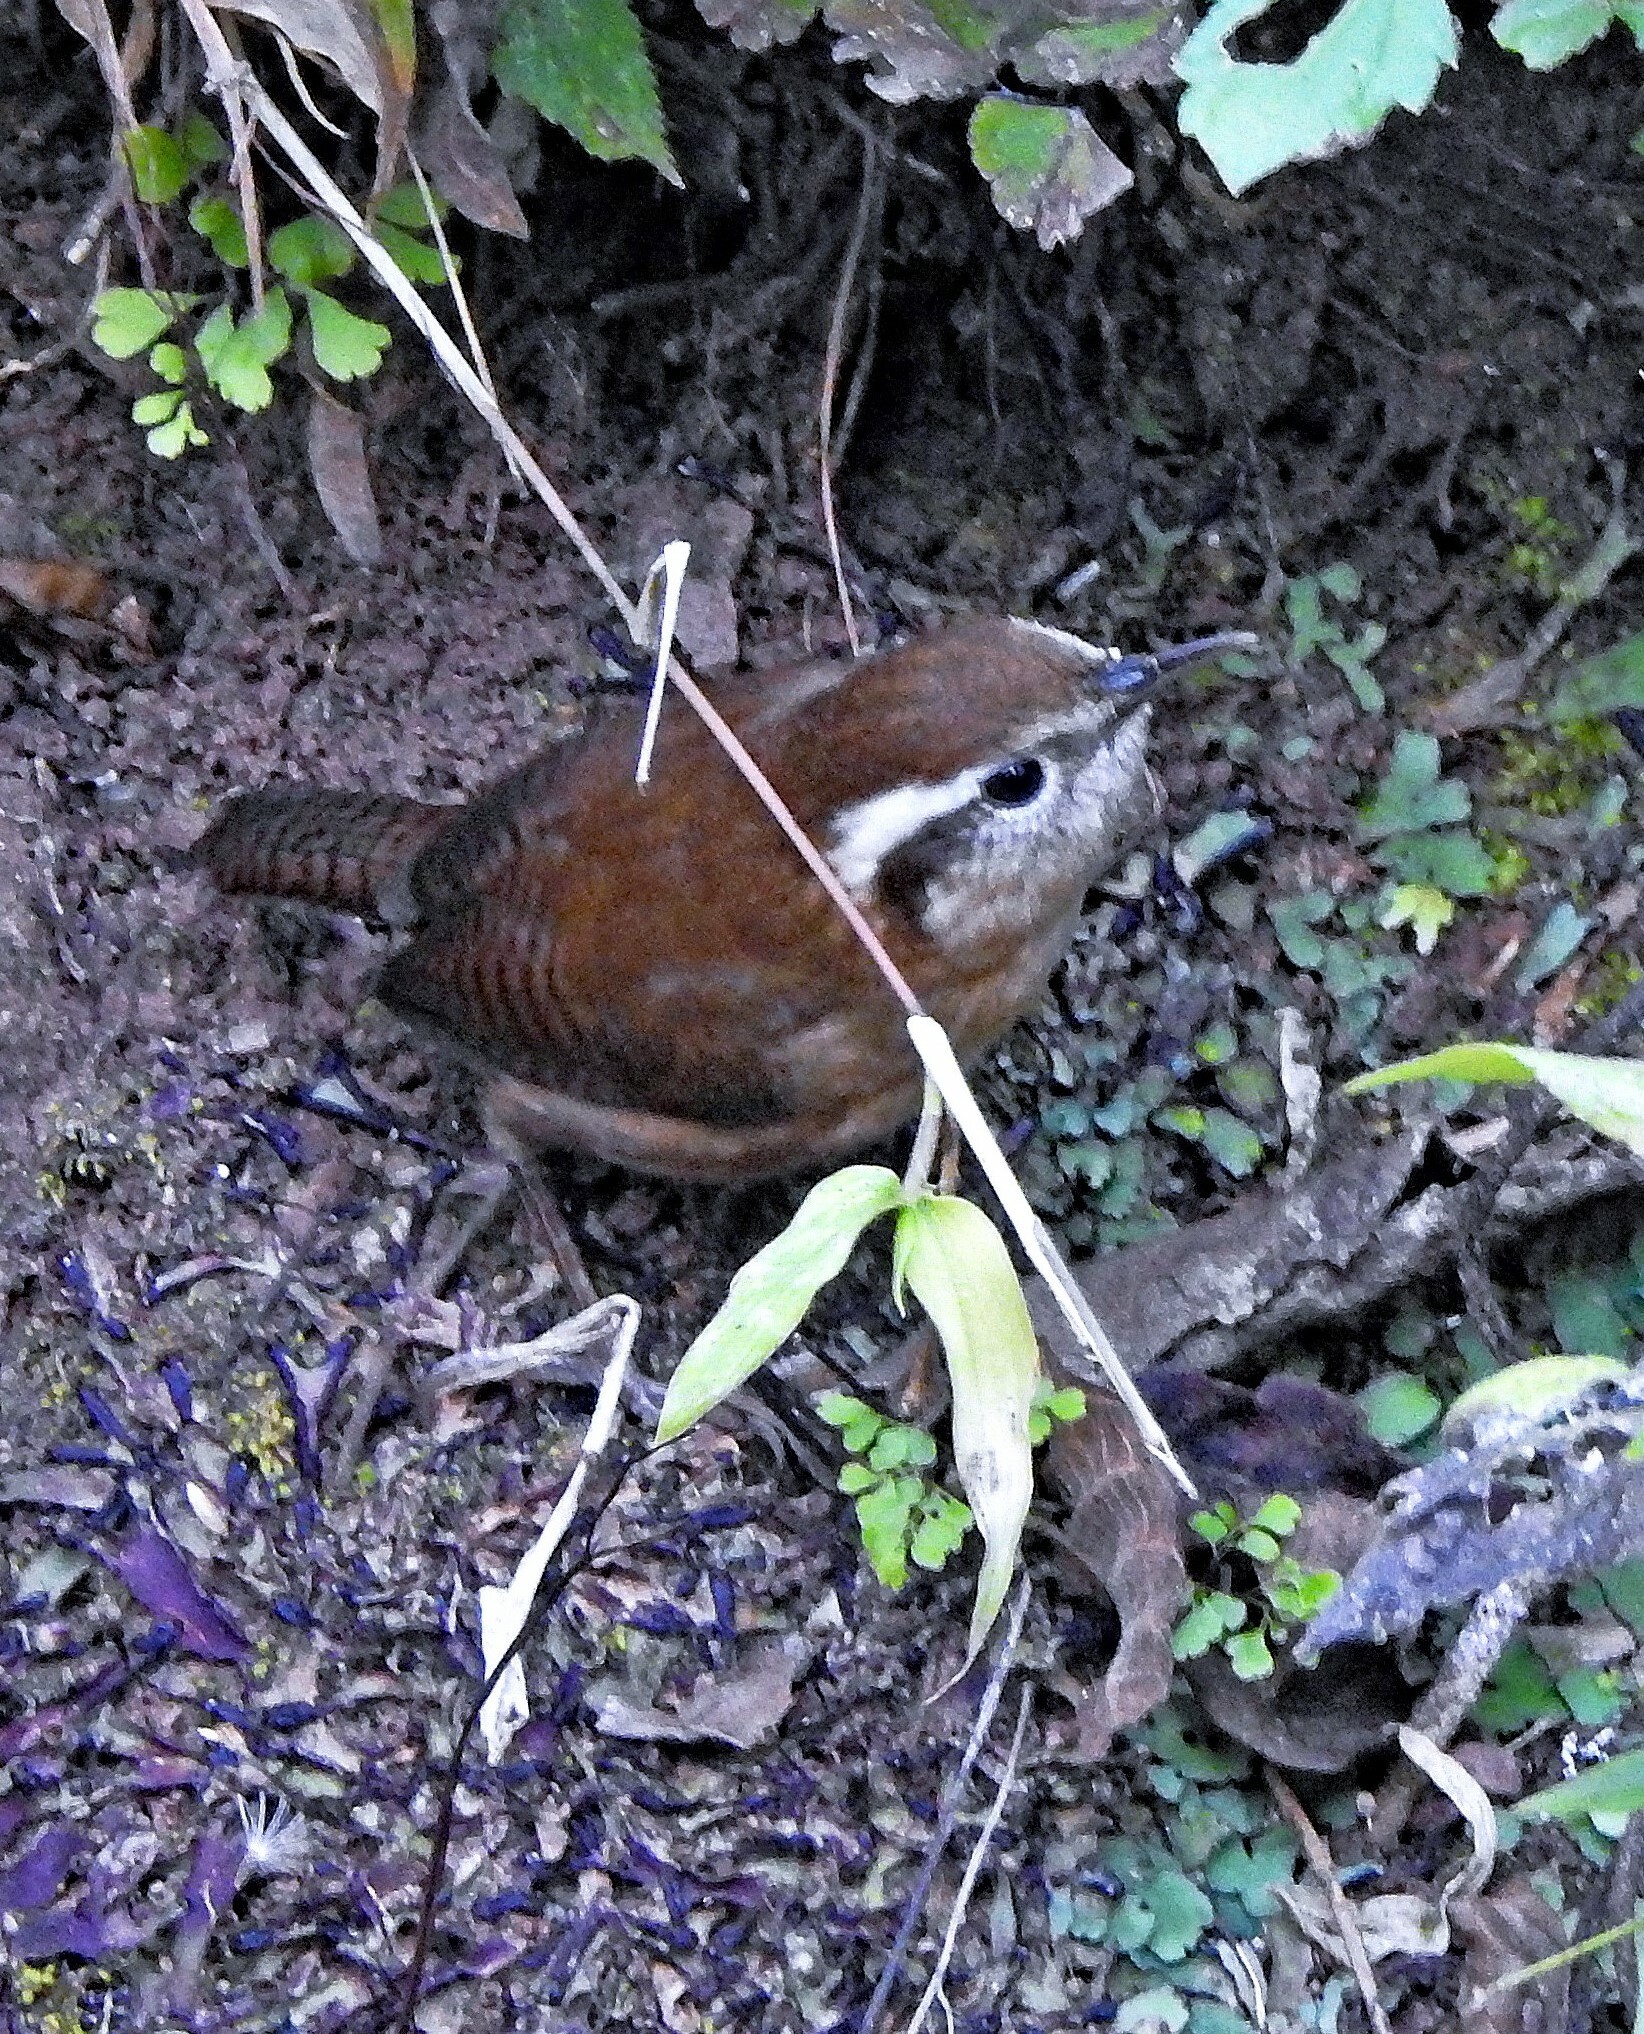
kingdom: Animalia
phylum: Chordata
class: Aves
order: Passeriformes
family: Troglodytidae
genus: Troglodytes
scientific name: Troglodytes solstitialis
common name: Mountain wren
